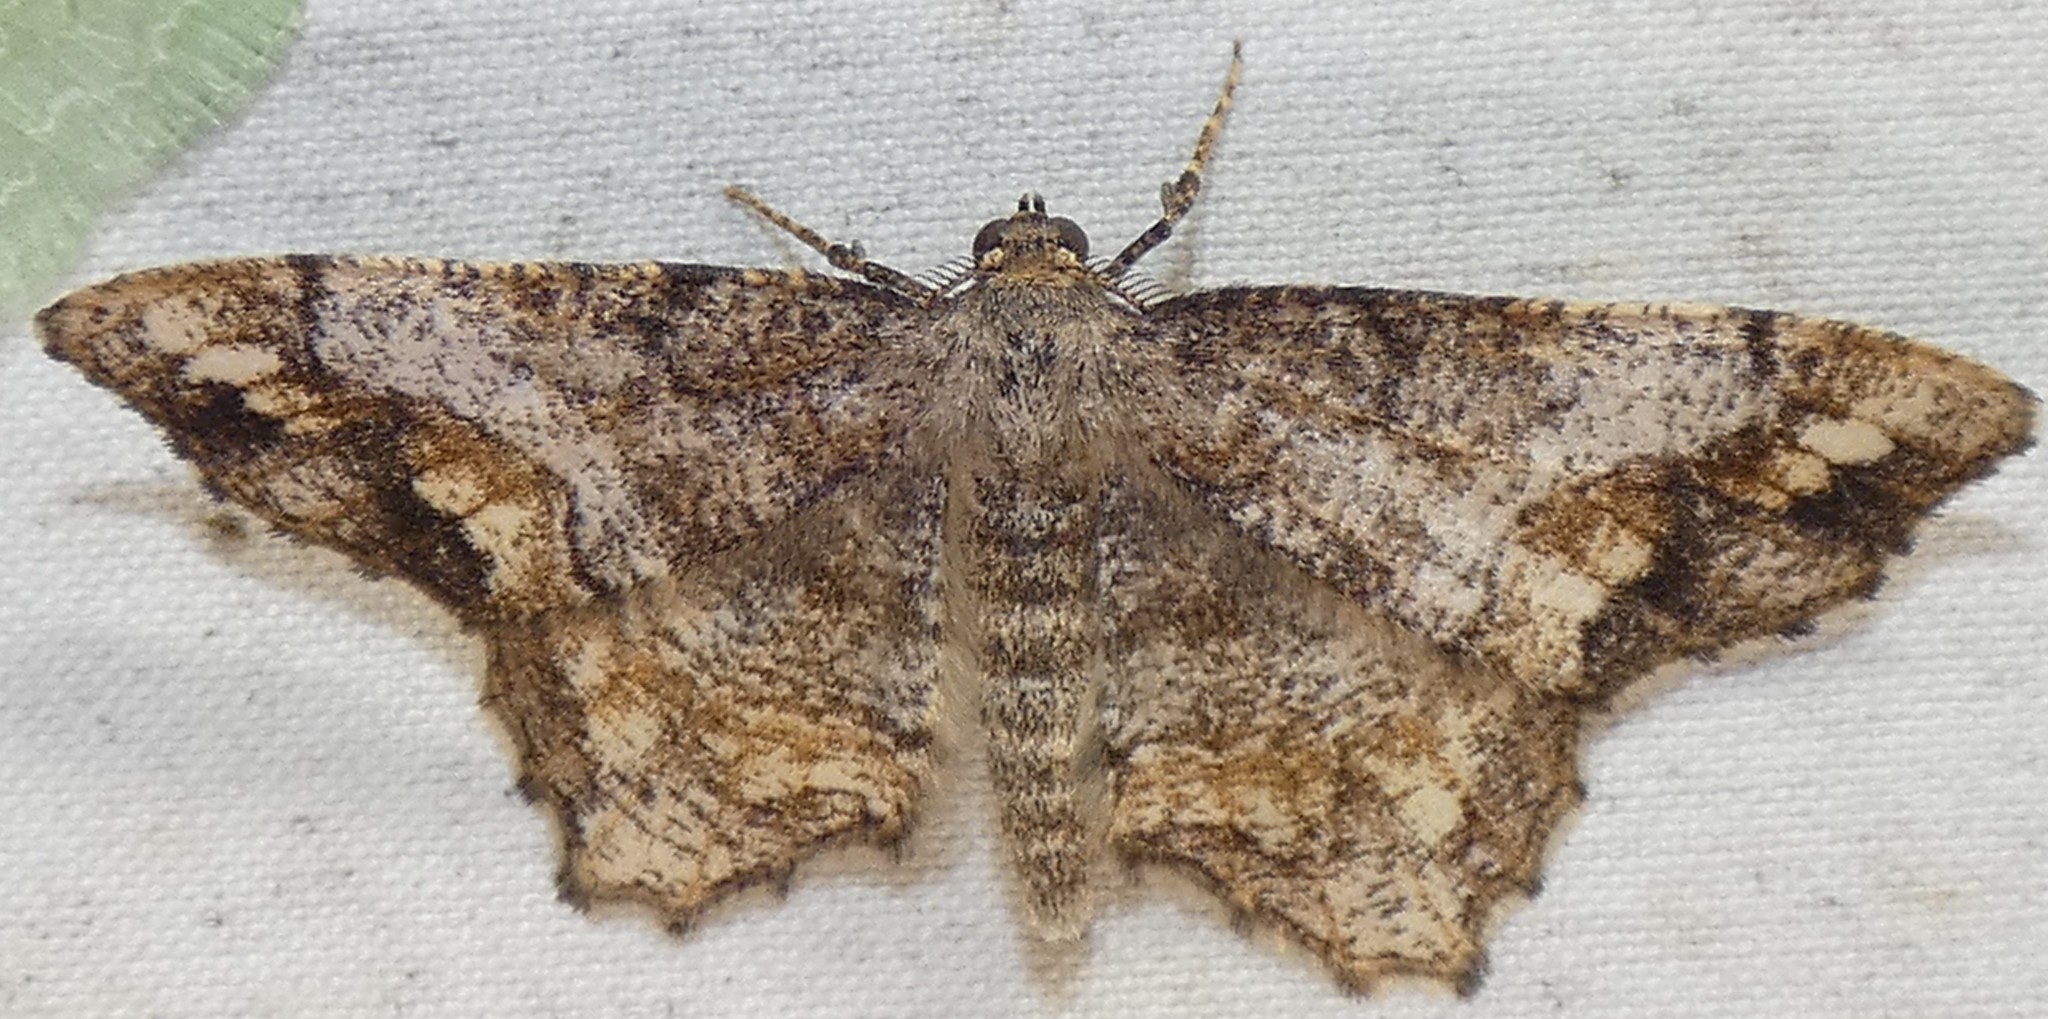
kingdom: Animalia
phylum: Arthropoda
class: Insecta
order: Lepidoptera
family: Geometridae
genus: Hypagyrtis
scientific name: Hypagyrtis unipunctata
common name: One-spotted variant
